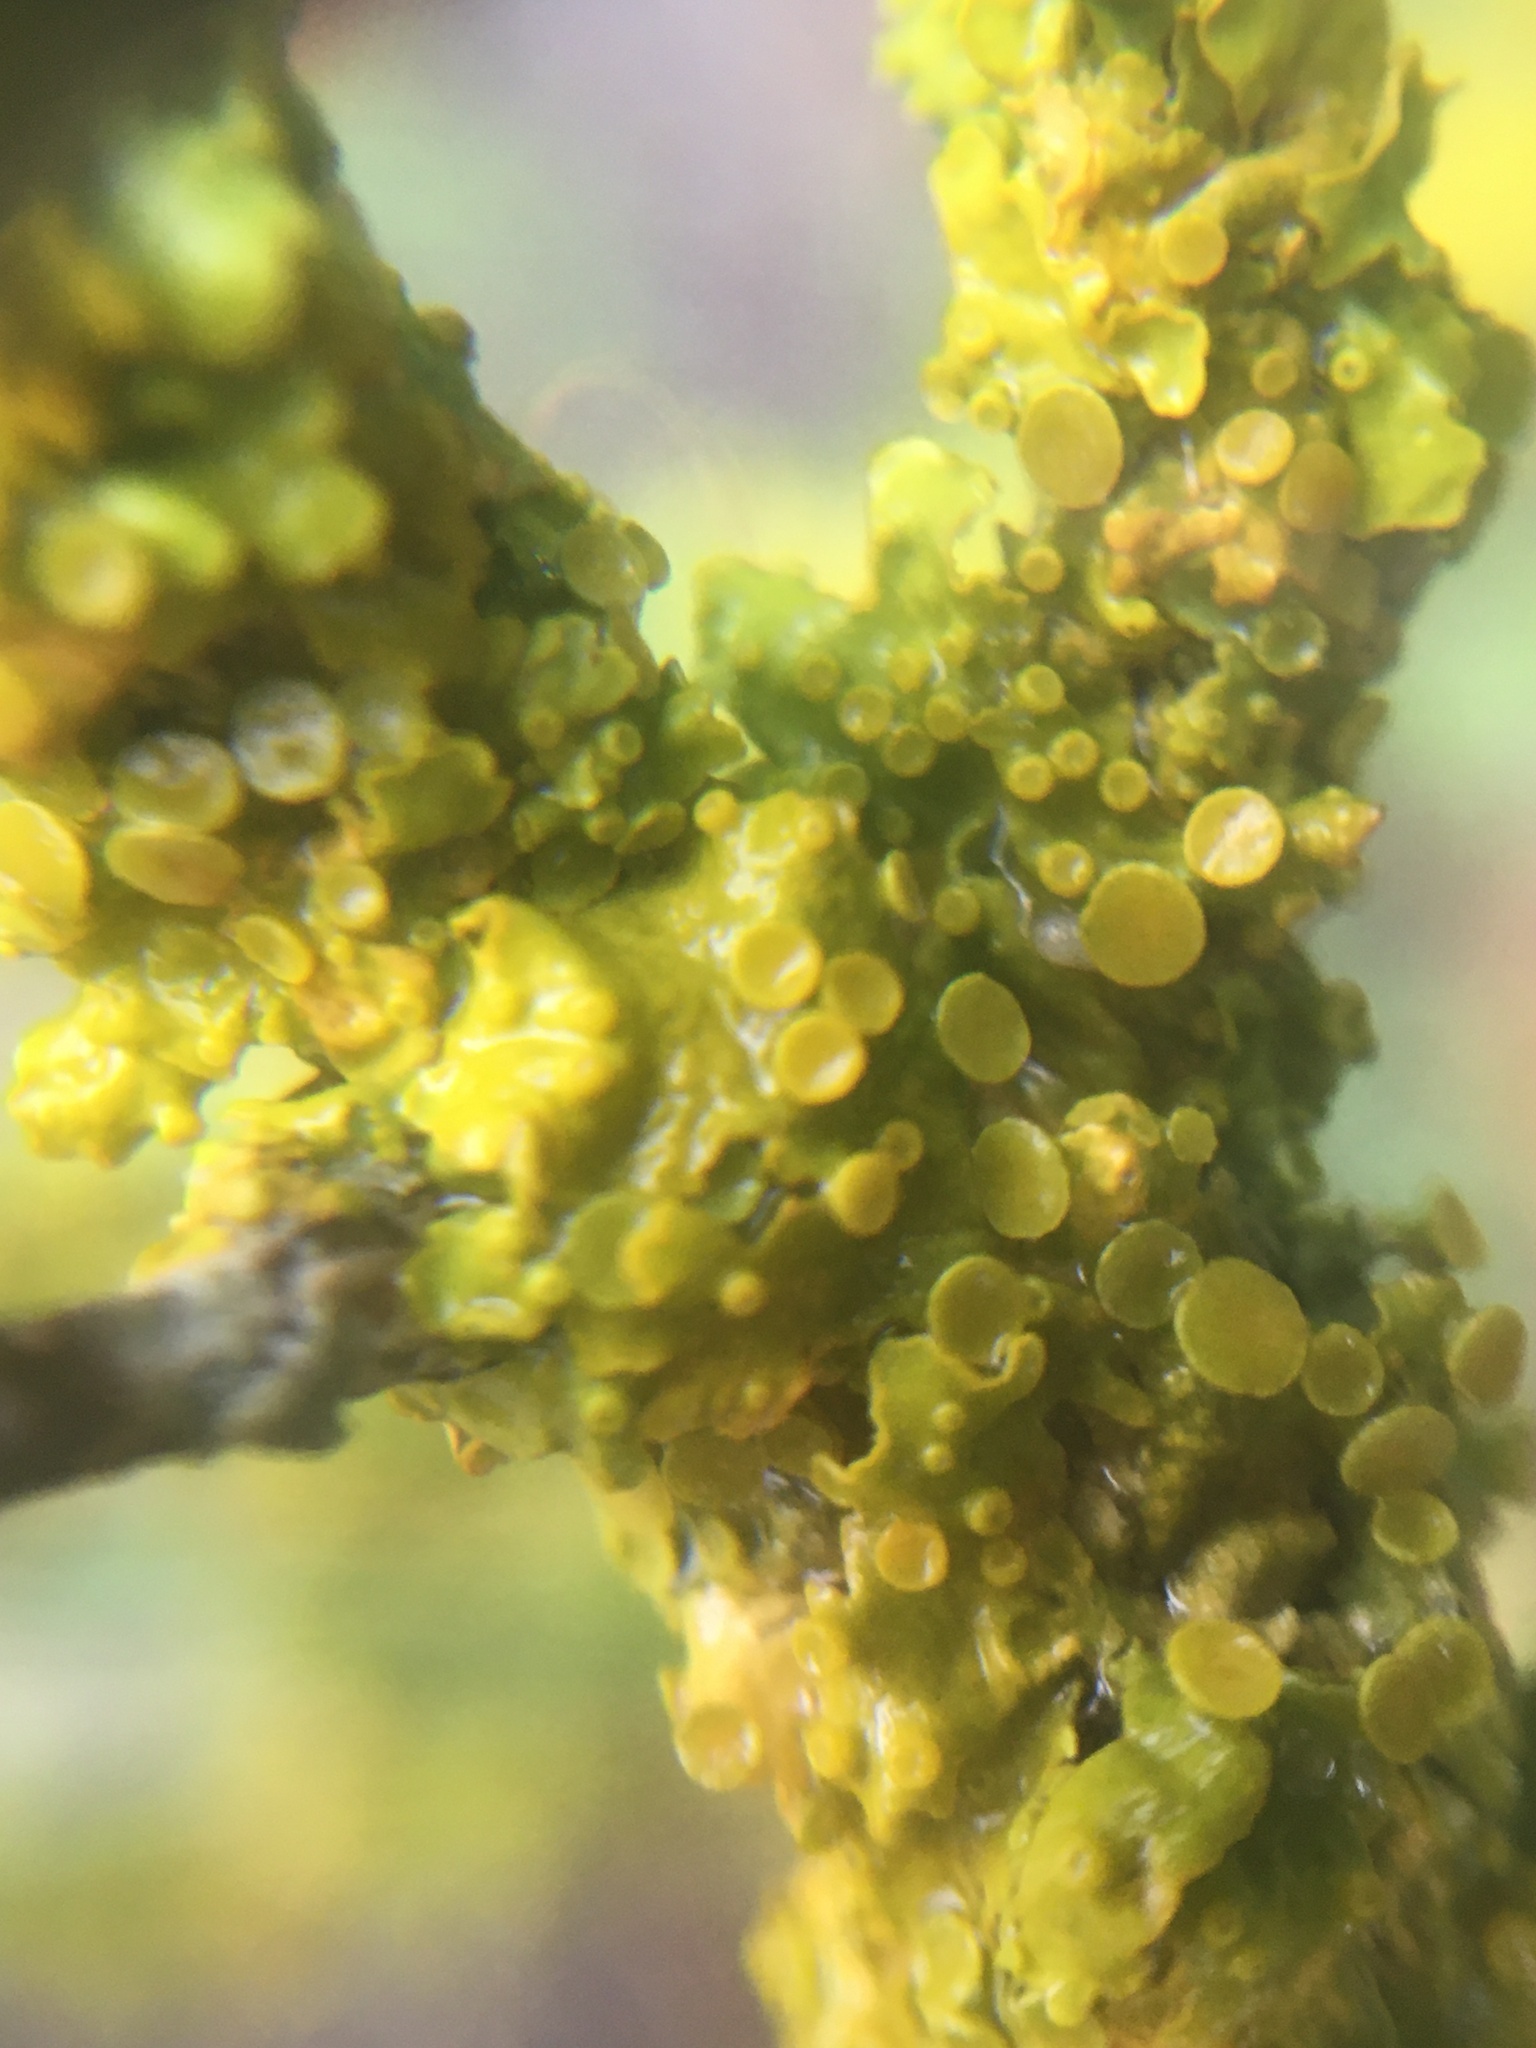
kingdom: Fungi
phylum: Ascomycota
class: Lecanoromycetes
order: Teloschistales
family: Teloschistaceae
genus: Xanthoria
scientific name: Xanthoria parietina
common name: Common orange lichen
